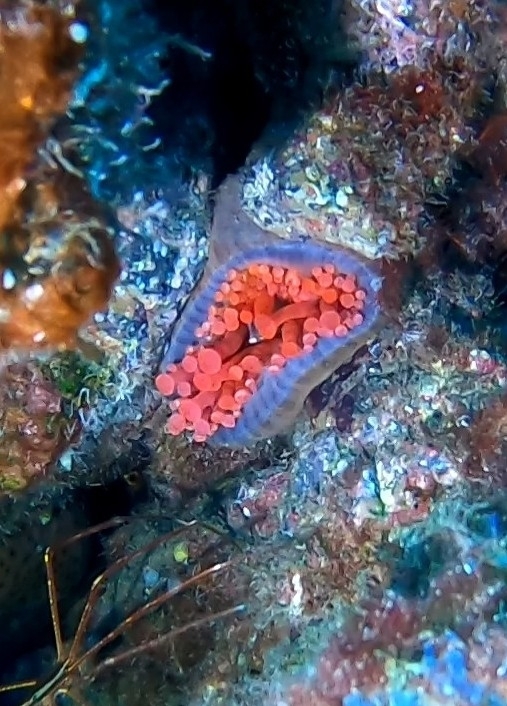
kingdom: Animalia
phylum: Cnidaria
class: Anthozoa
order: Actiniaria
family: Andvakiidae
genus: Telmatactis
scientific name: Telmatactis cricoides
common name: Blunt-tentacled anemone
